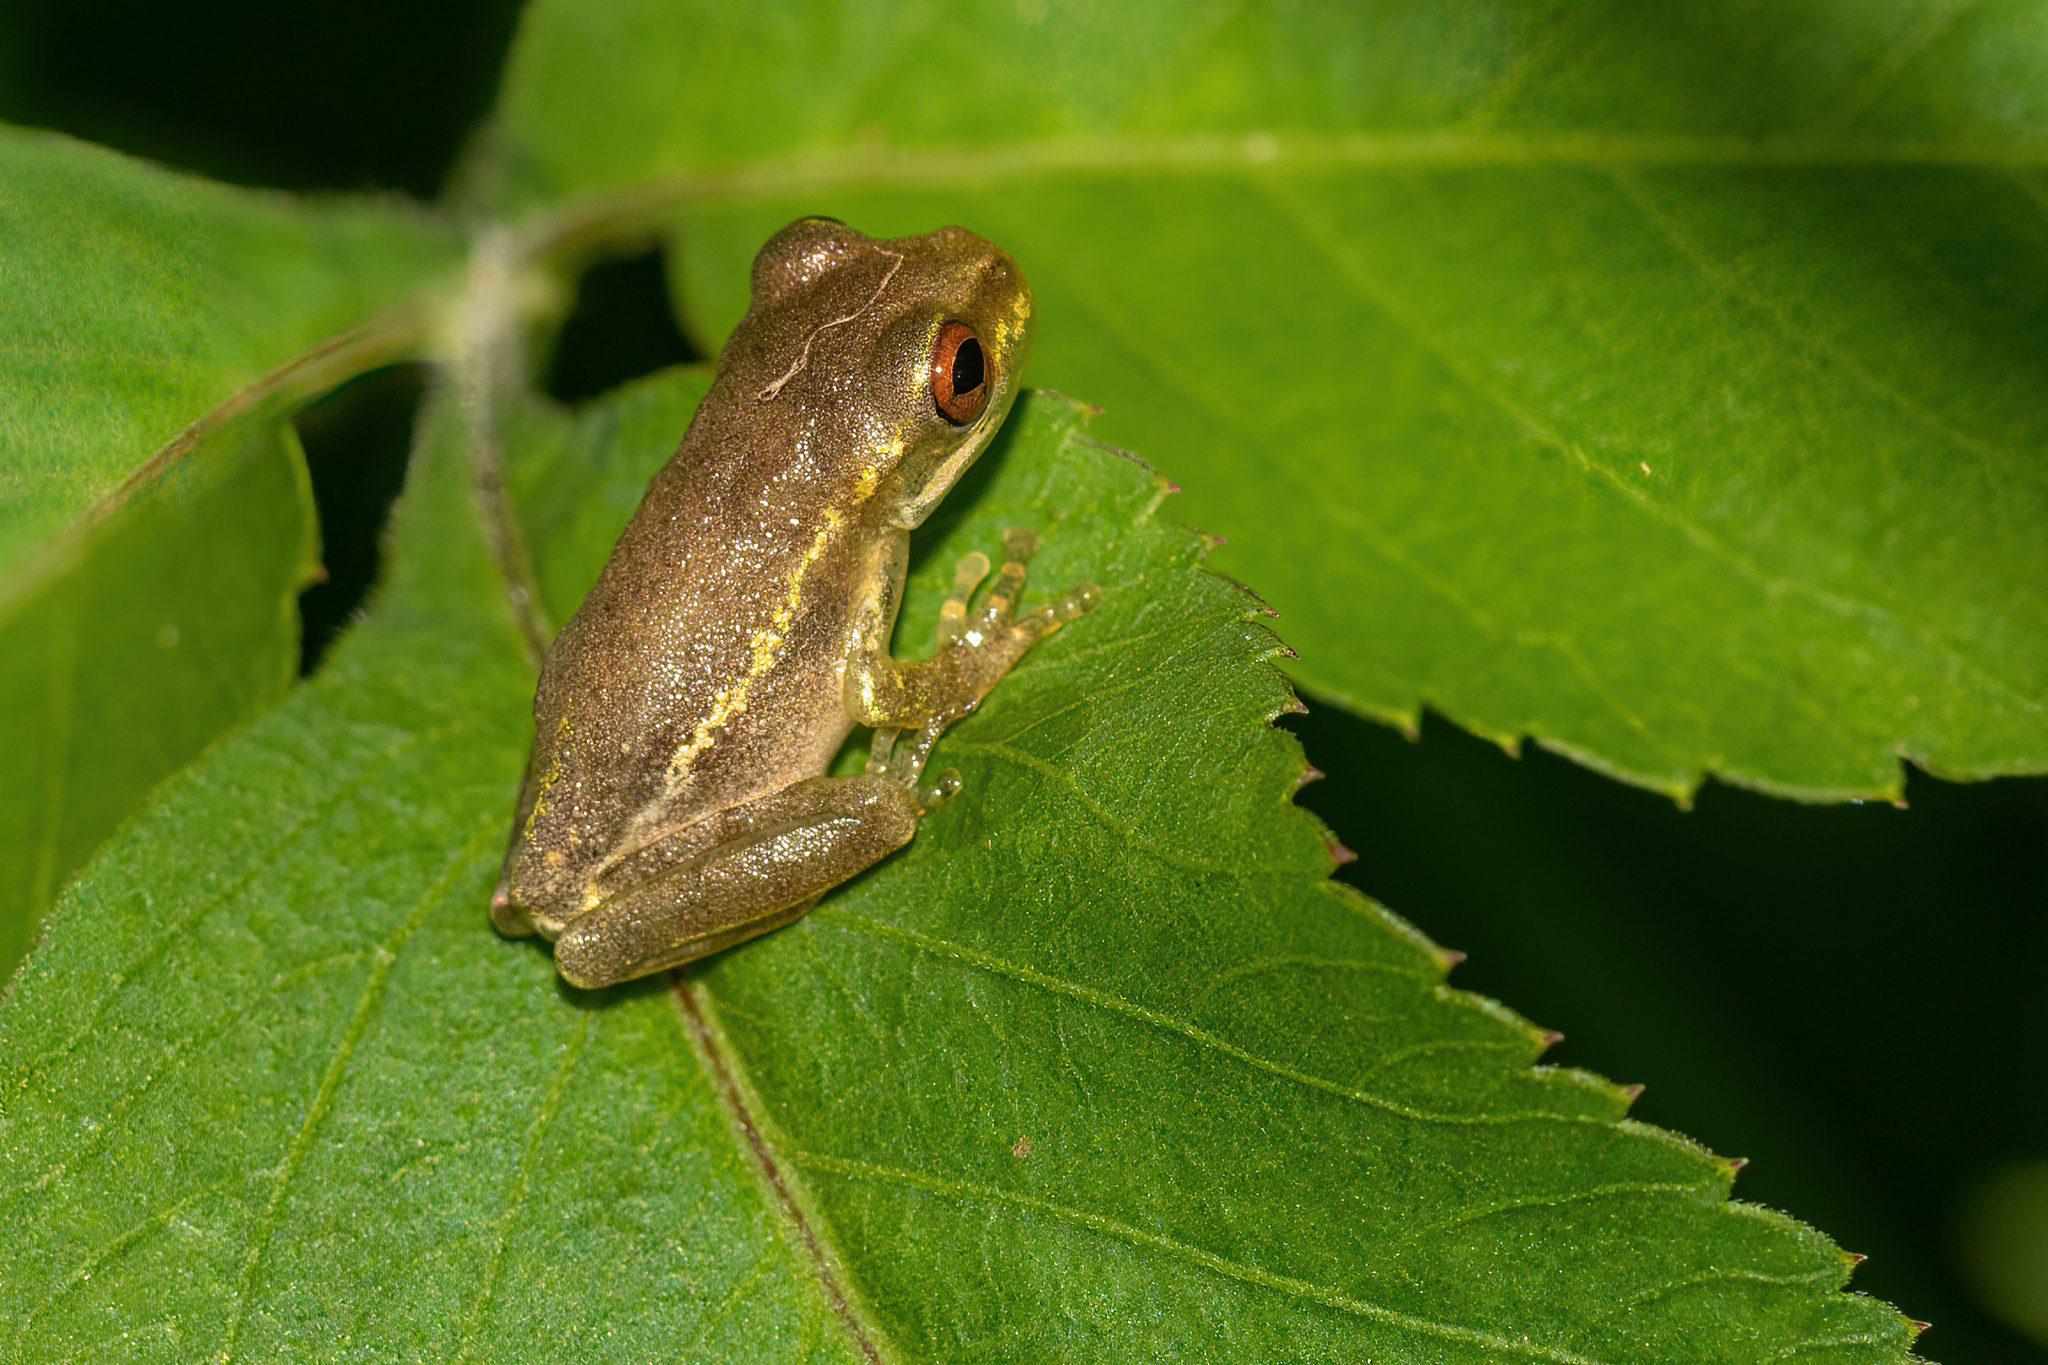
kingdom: Animalia
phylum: Chordata
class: Amphibia
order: Anura
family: Hylidae
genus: Osteopilus
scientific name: Osteopilus septentrionalis
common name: Cuban treefrog
